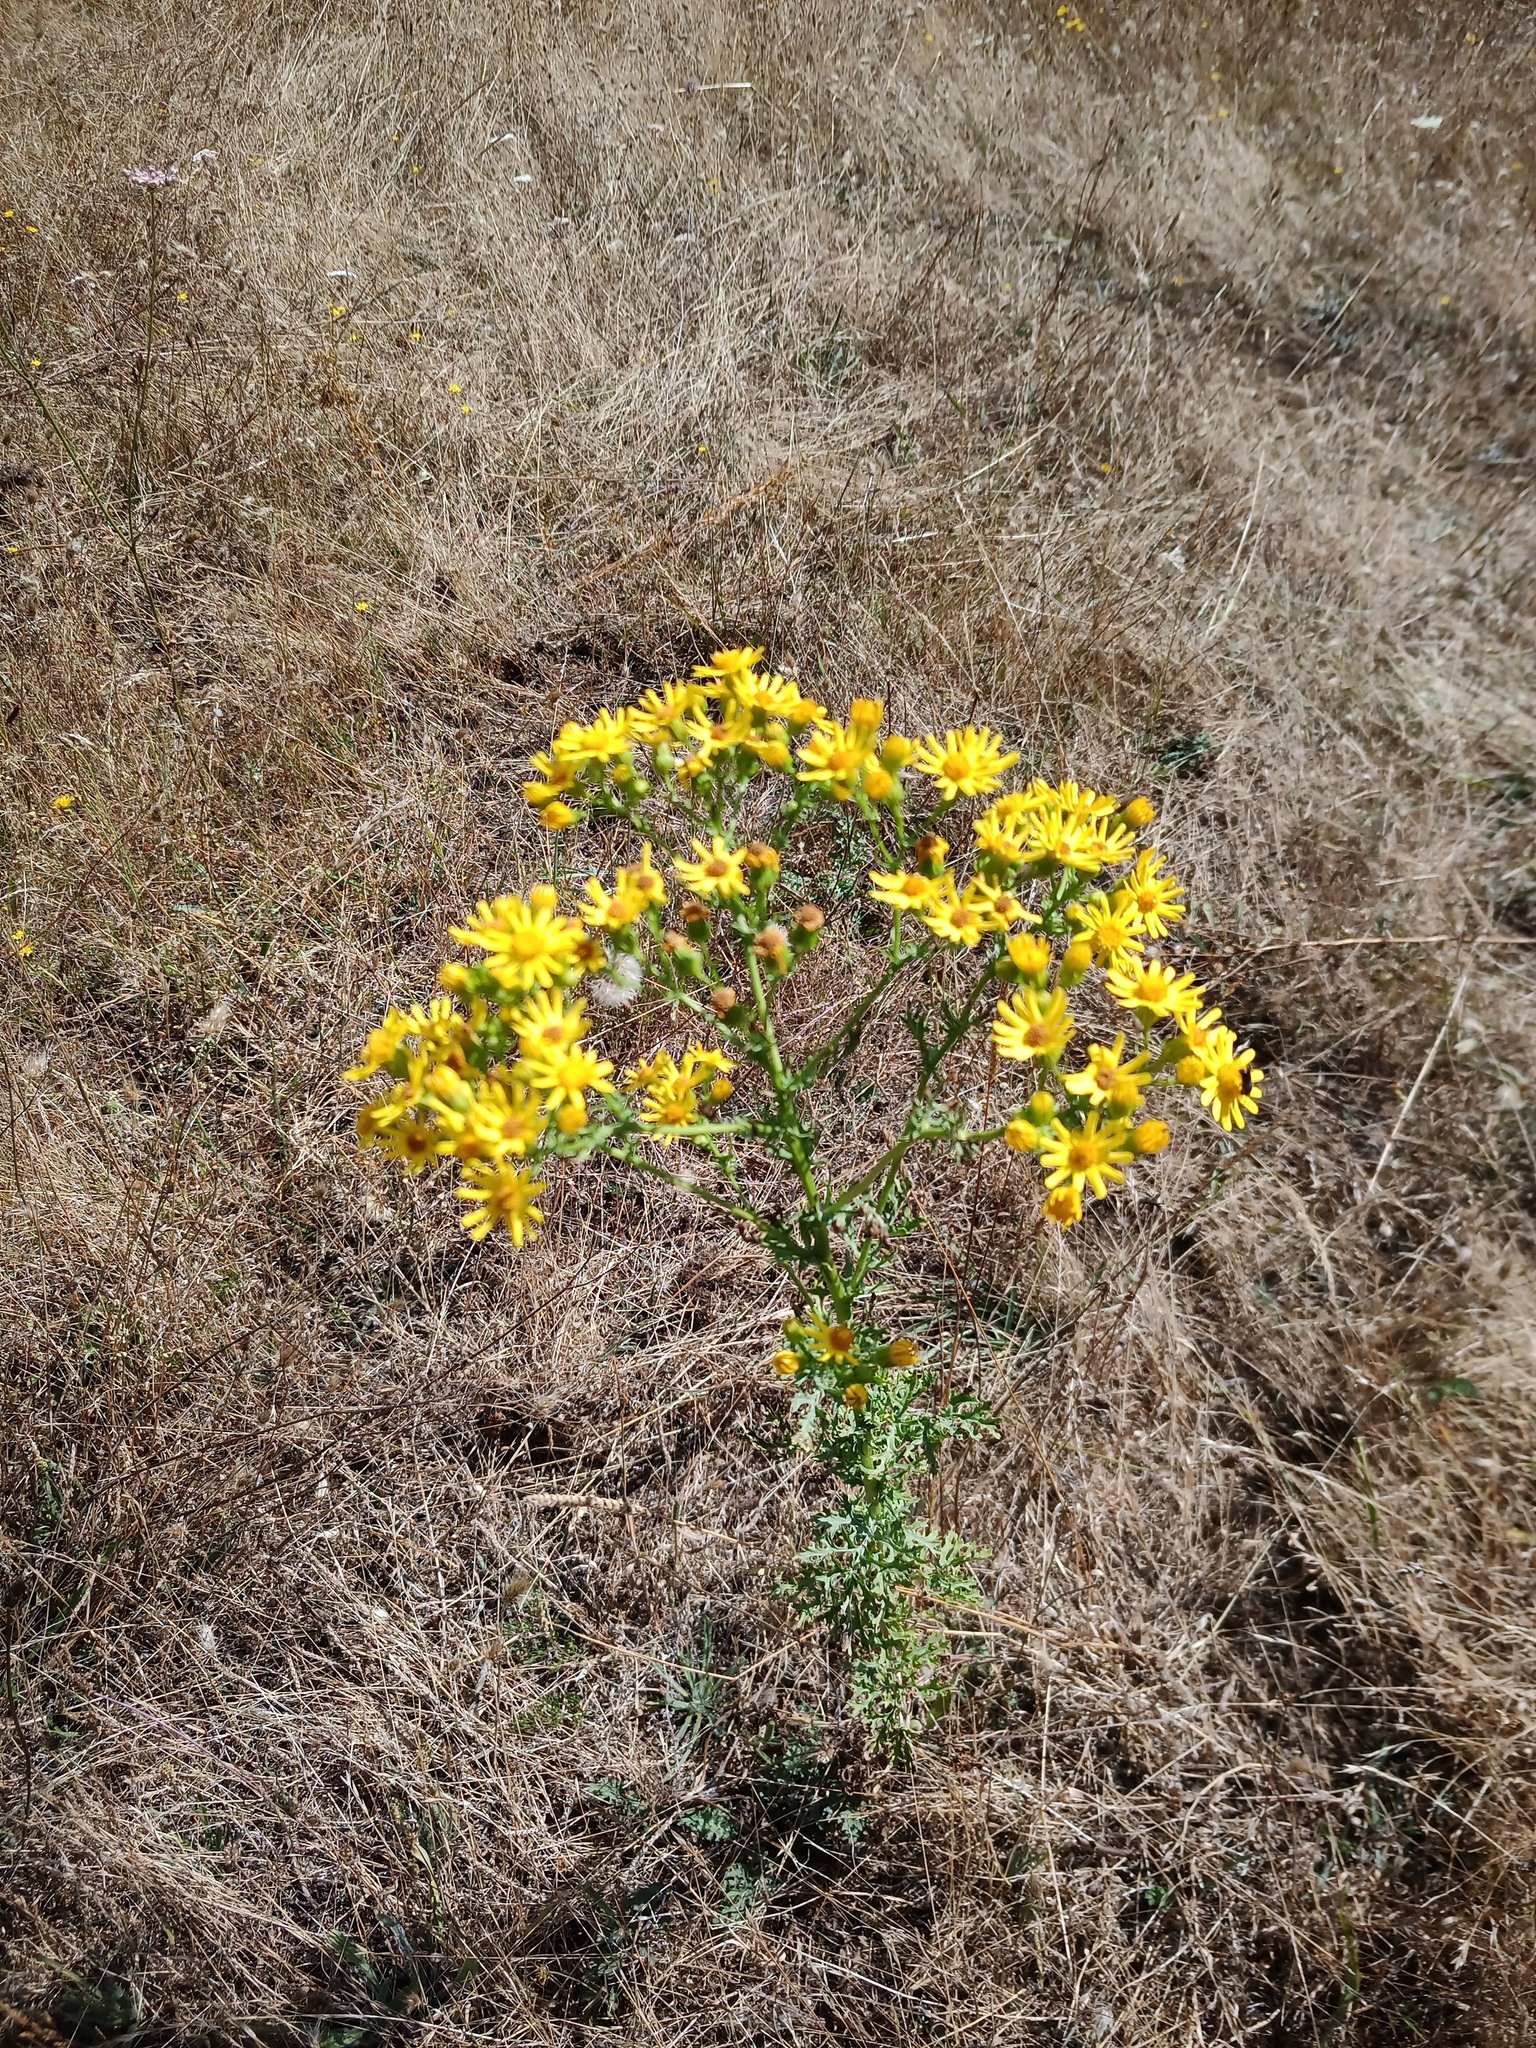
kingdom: Plantae
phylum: Tracheophyta
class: Magnoliopsida
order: Asterales
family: Asteraceae
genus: Jacobaea
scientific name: Jacobaea vulgaris
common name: Stinking willie
